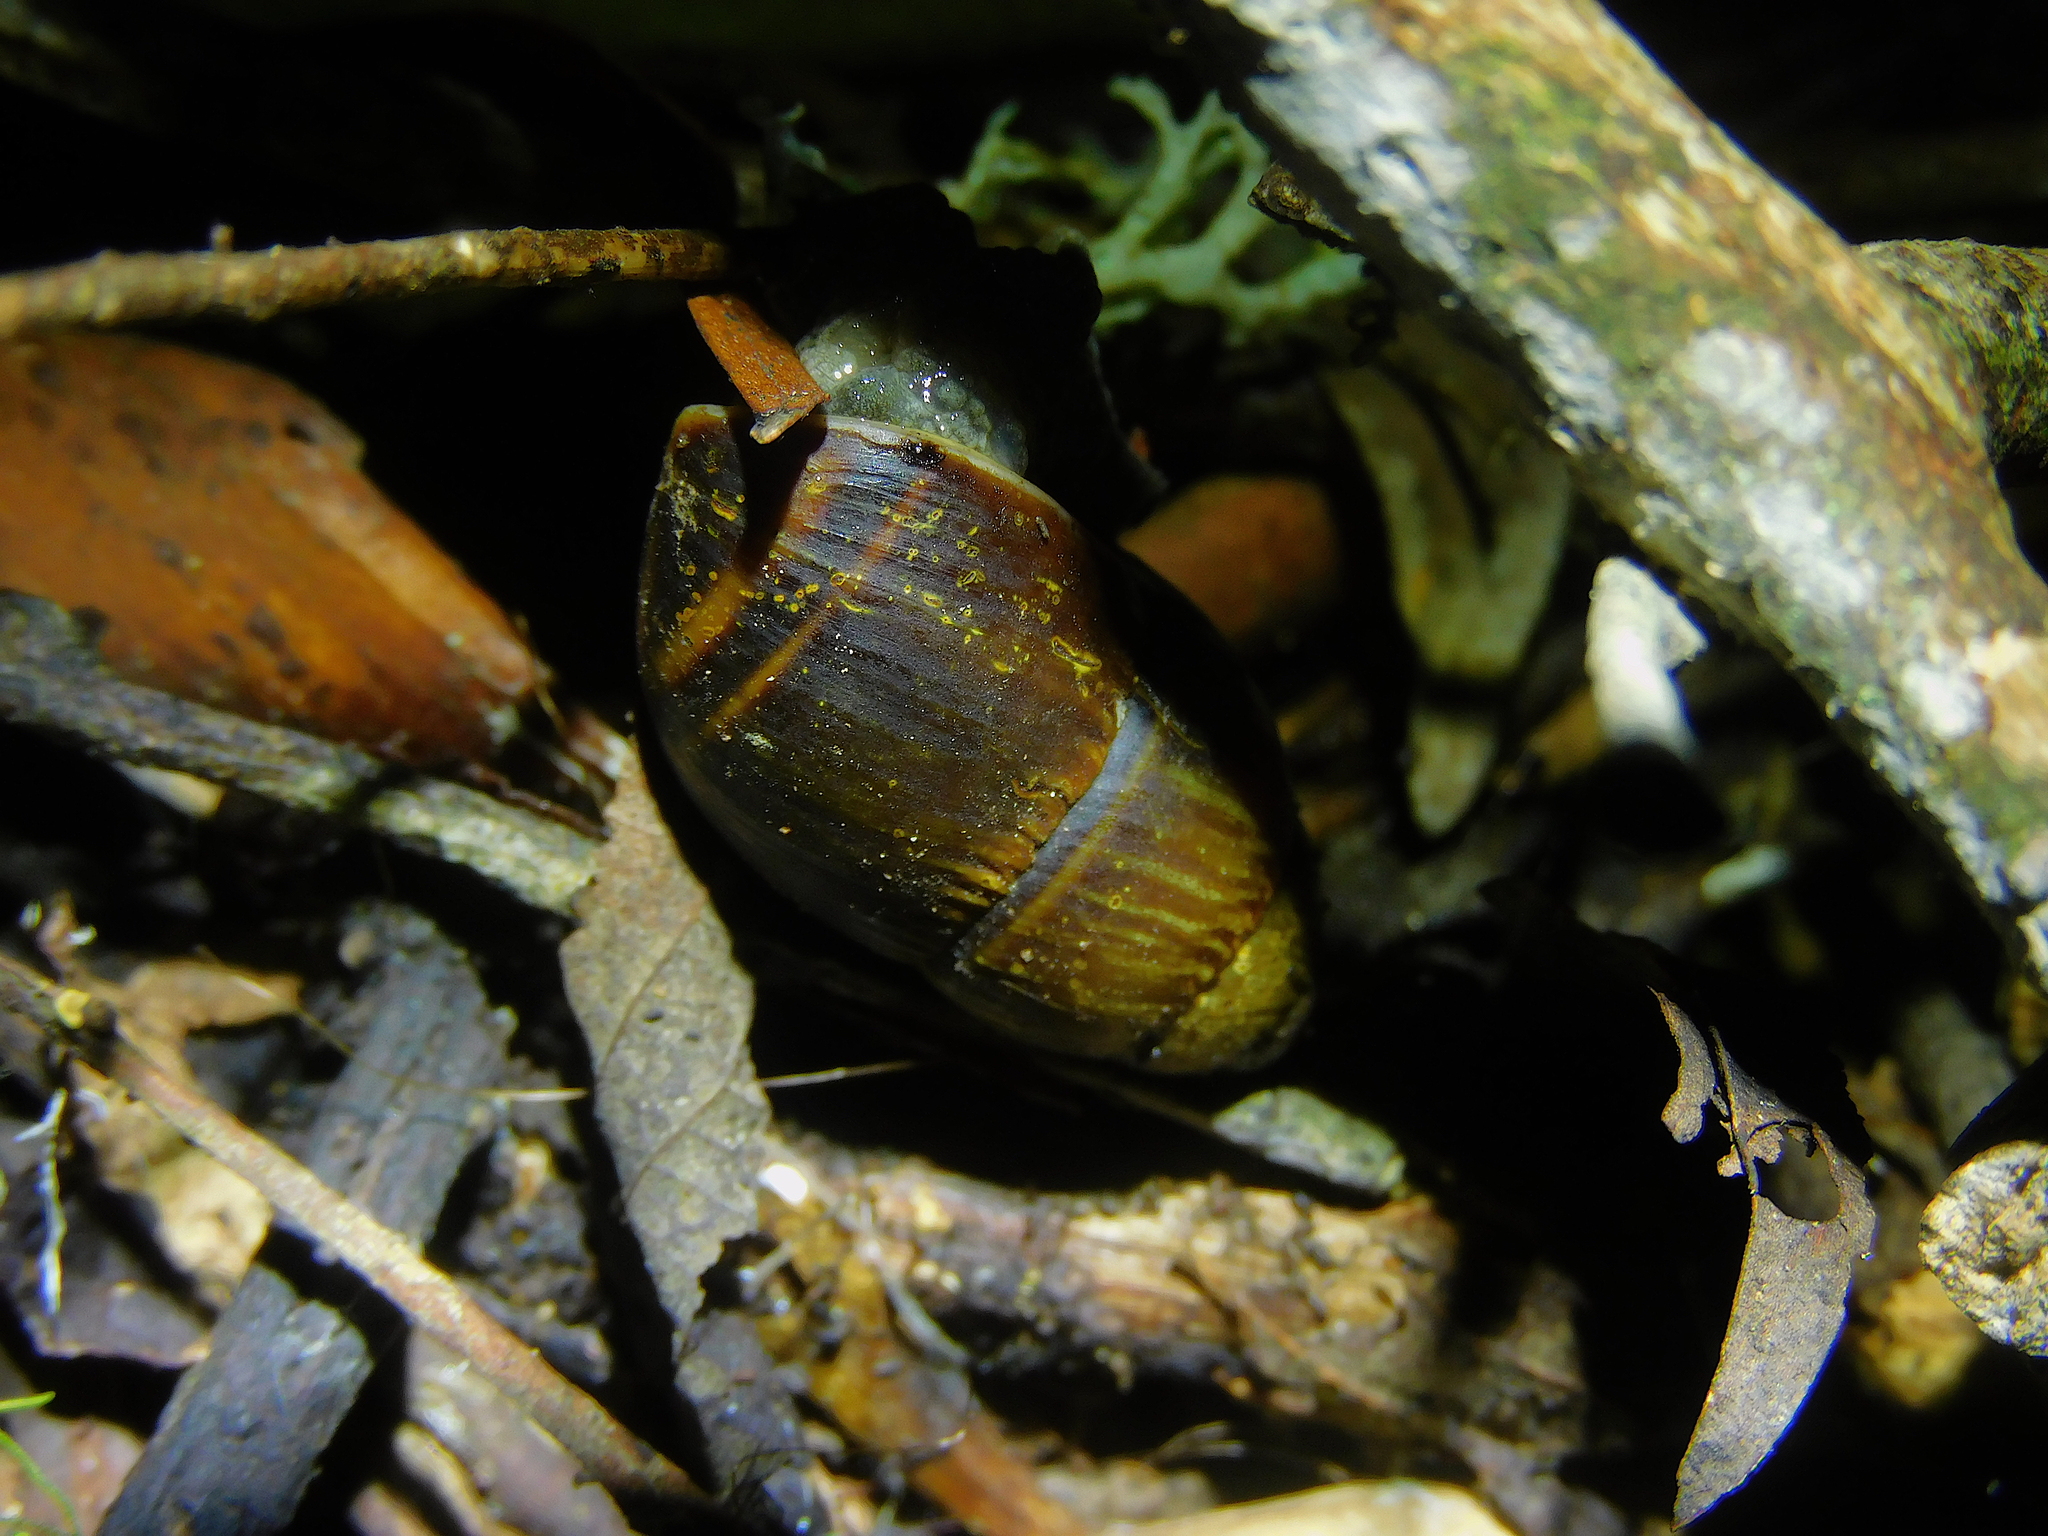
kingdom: Animalia
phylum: Mollusca
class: Gastropoda
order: Stylommatophora
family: Caryodidae
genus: Caryodes
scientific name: Caryodes dufresnii
